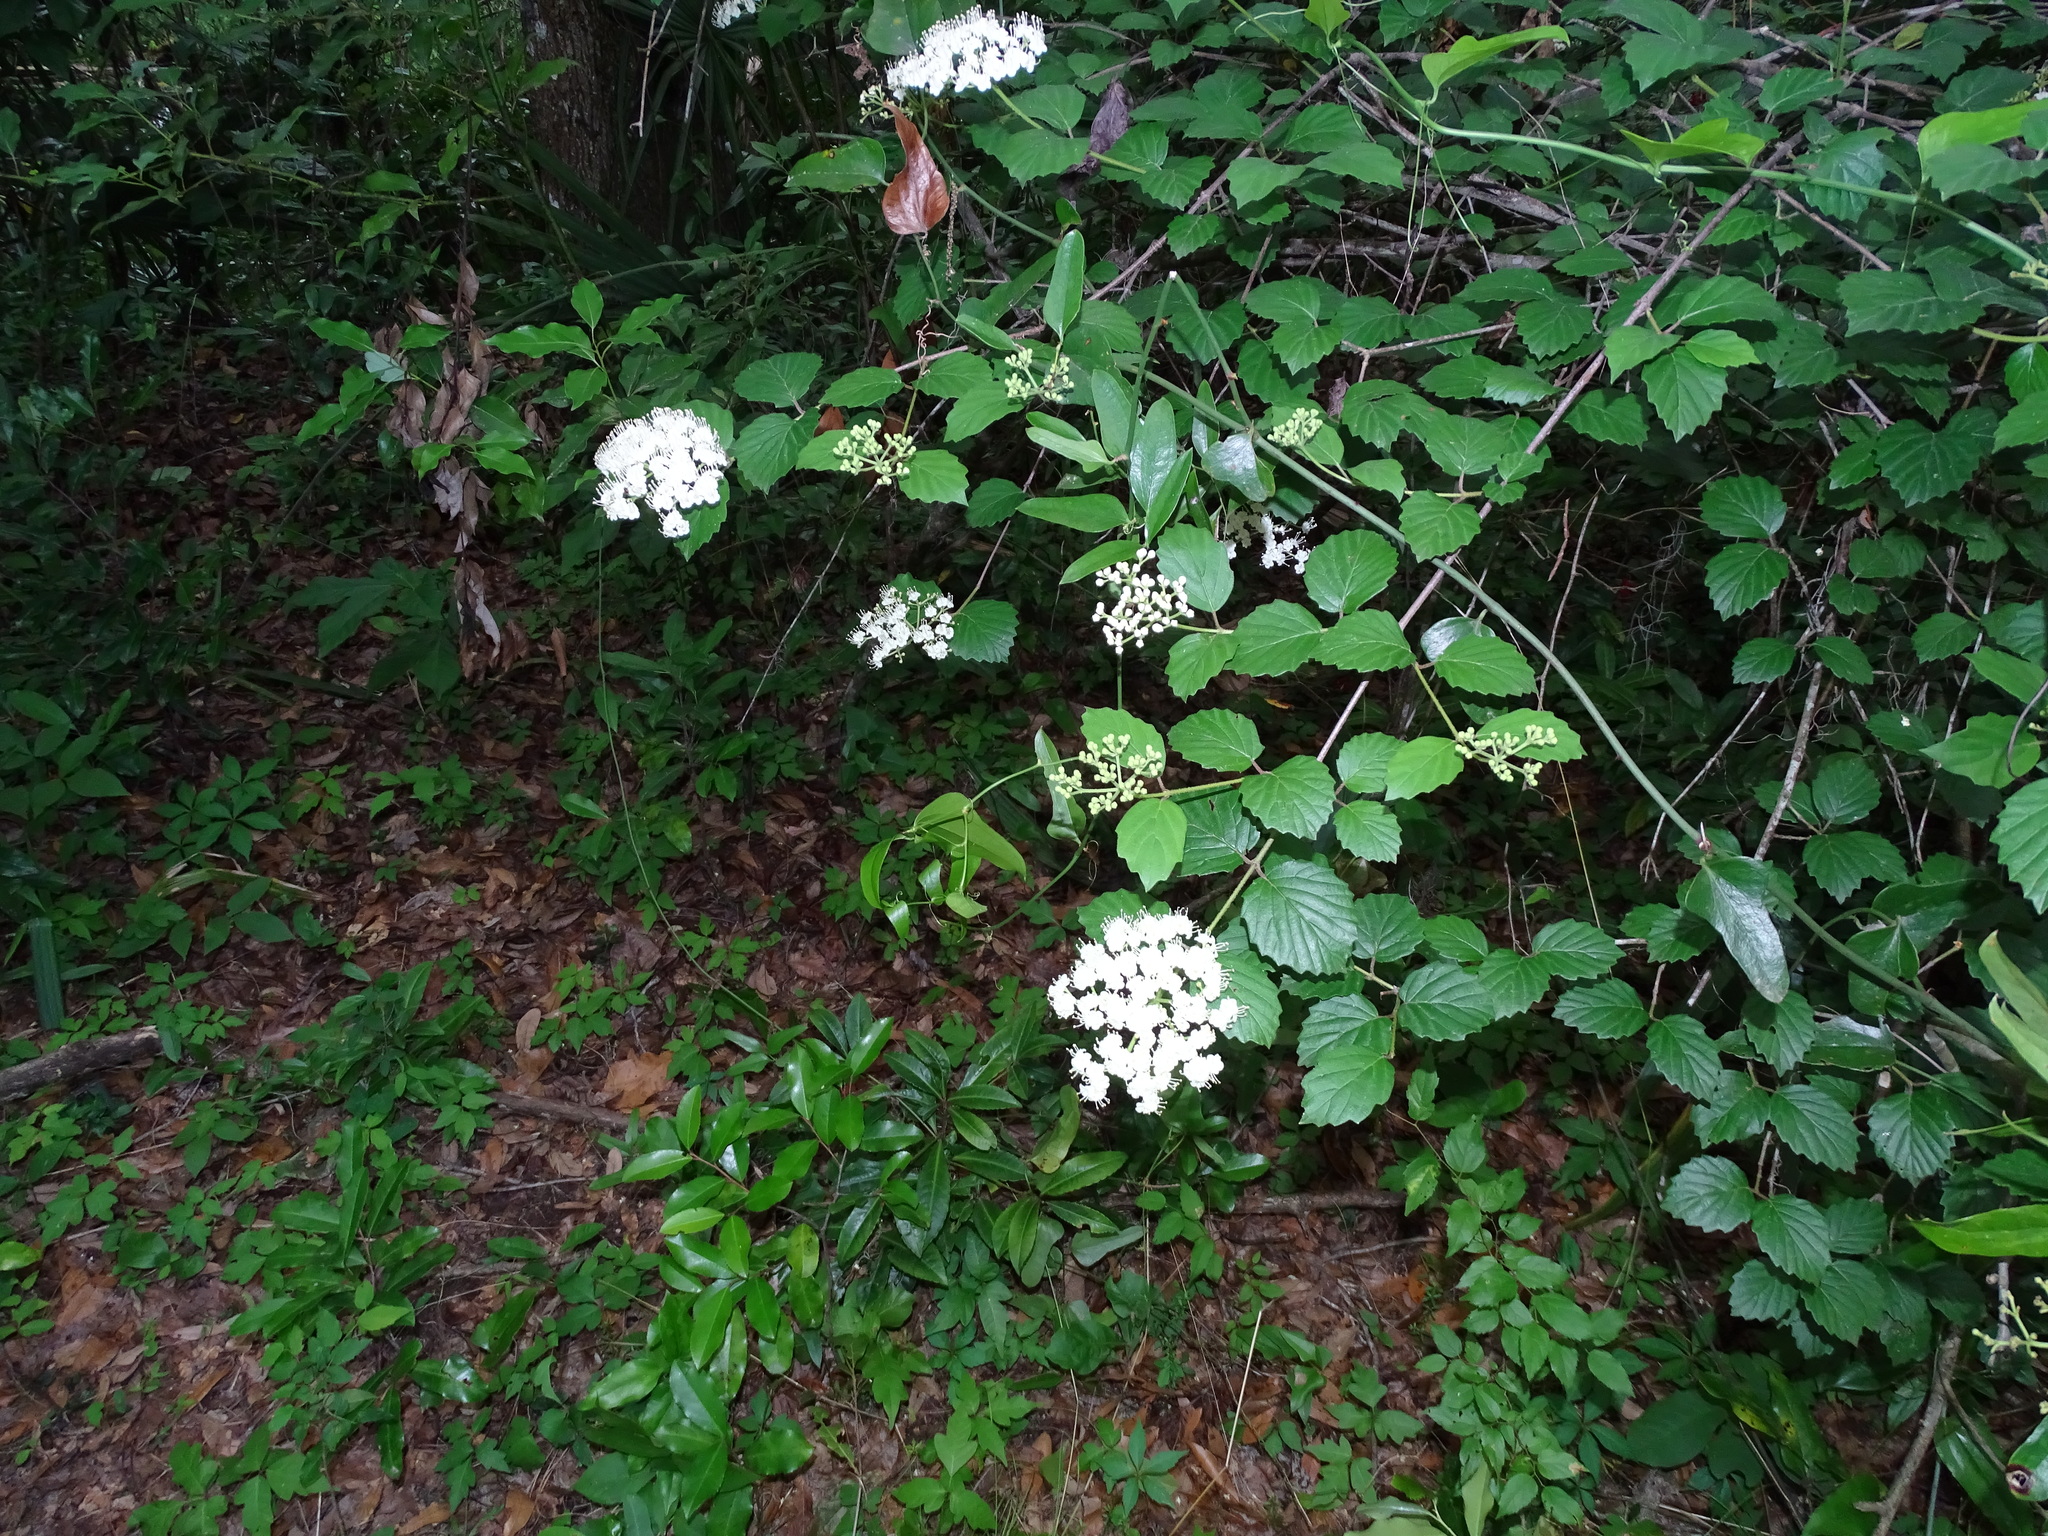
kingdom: Plantae
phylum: Tracheophyta
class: Magnoliopsida
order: Dipsacales
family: Viburnaceae
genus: Viburnum
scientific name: Viburnum scabrellum
